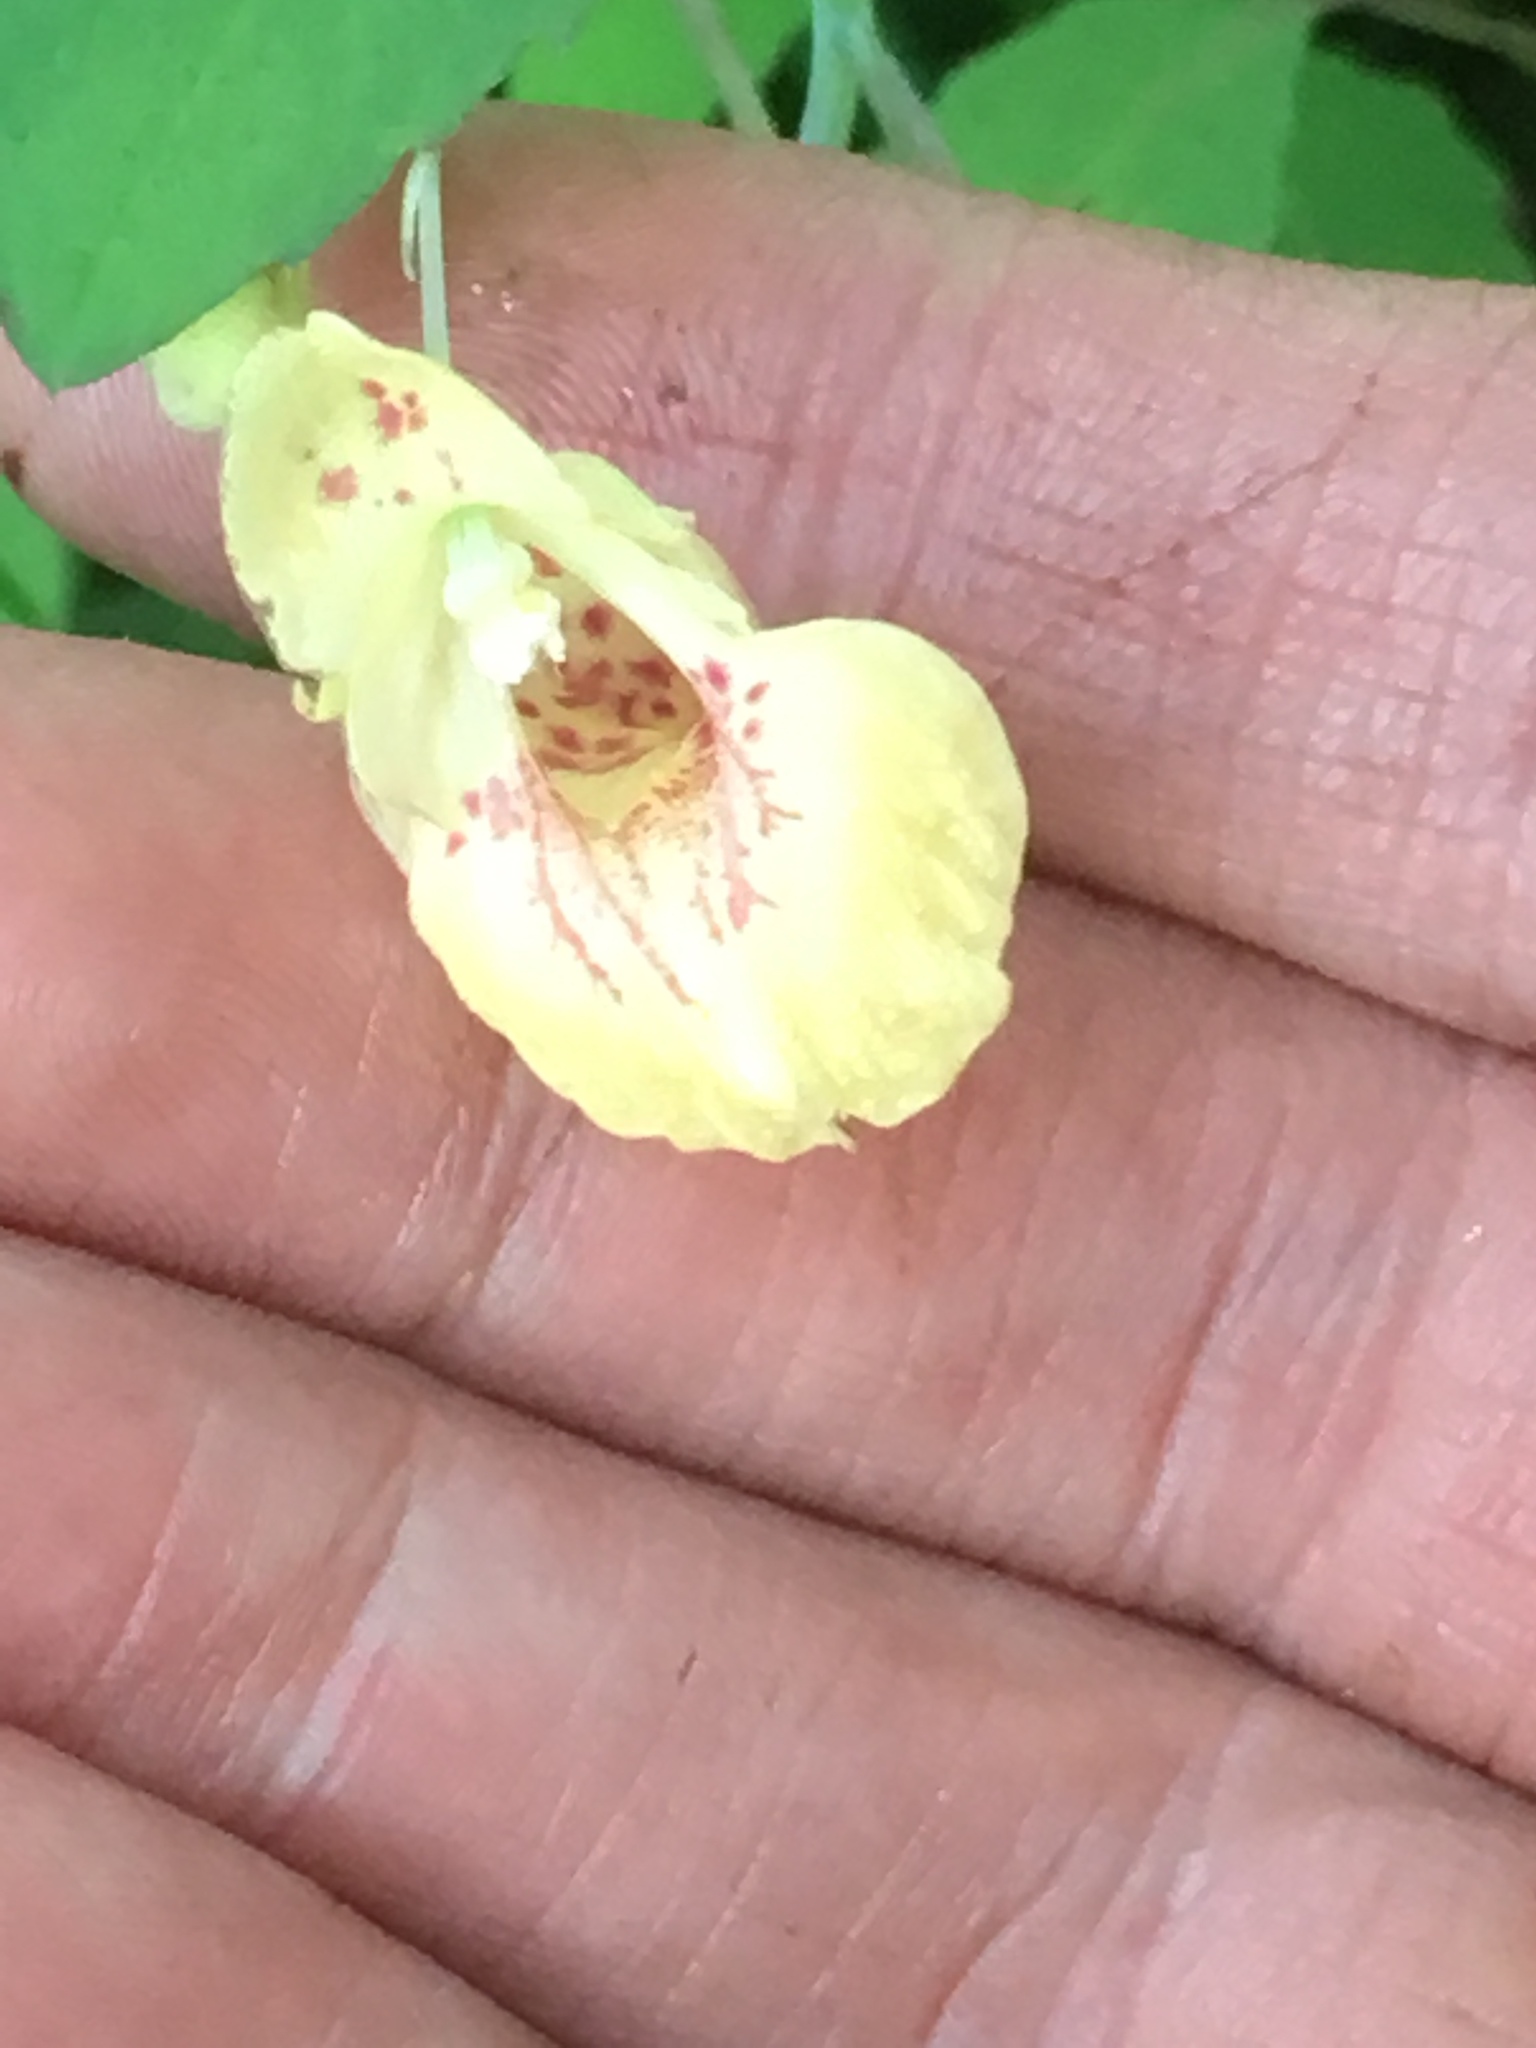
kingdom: Plantae
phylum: Tracheophyta
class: Magnoliopsida
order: Ericales
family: Balsaminaceae
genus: Impatiens
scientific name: Impatiens capensis
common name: Orange balsam
